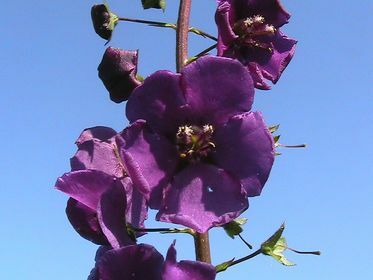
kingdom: Plantae
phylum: Tracheophyta
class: Magnoliopsida
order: Lamiales
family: Scrophulariaceae
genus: Verbascum
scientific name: Verbascum phoeniceum
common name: Purple mullein
